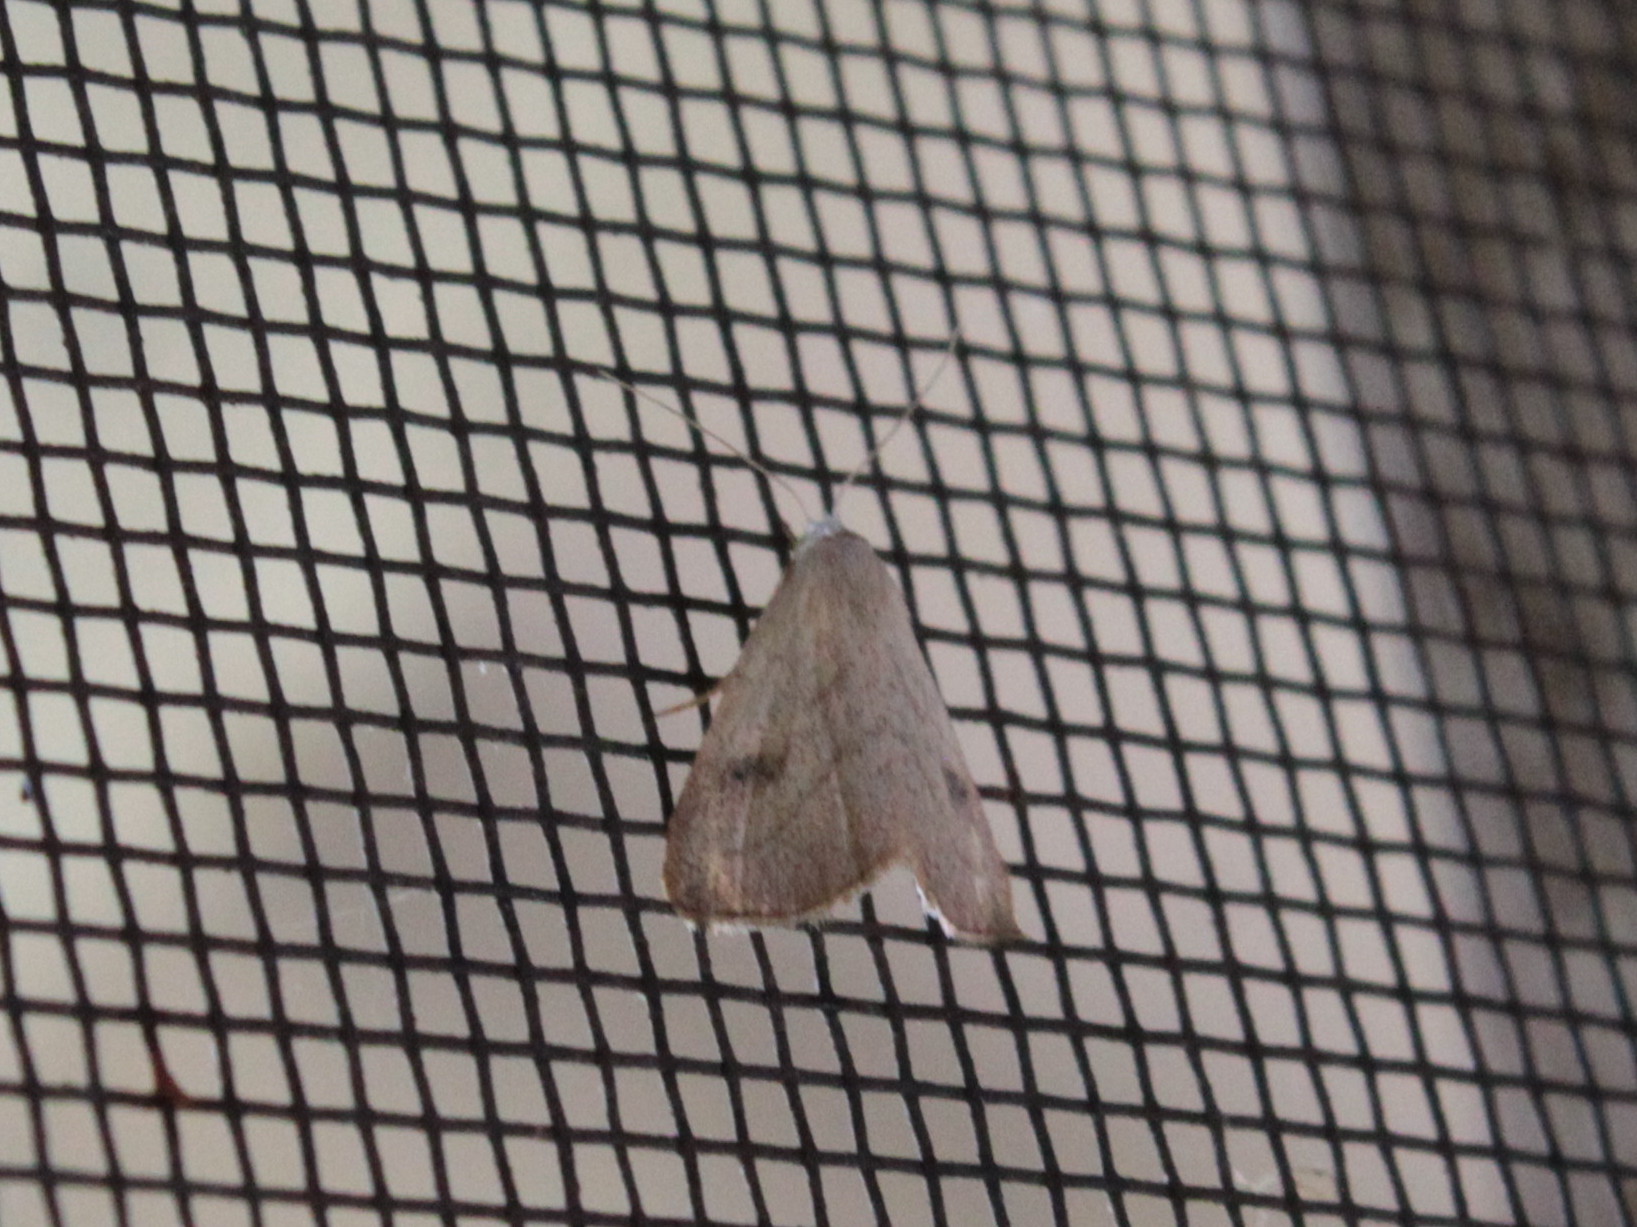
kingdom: Animalia
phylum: Arthropoda
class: Insecta
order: Lepidoptera
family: Erebidae
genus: Rivula
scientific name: Rivula propinqualis
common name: Spotted grass moth
